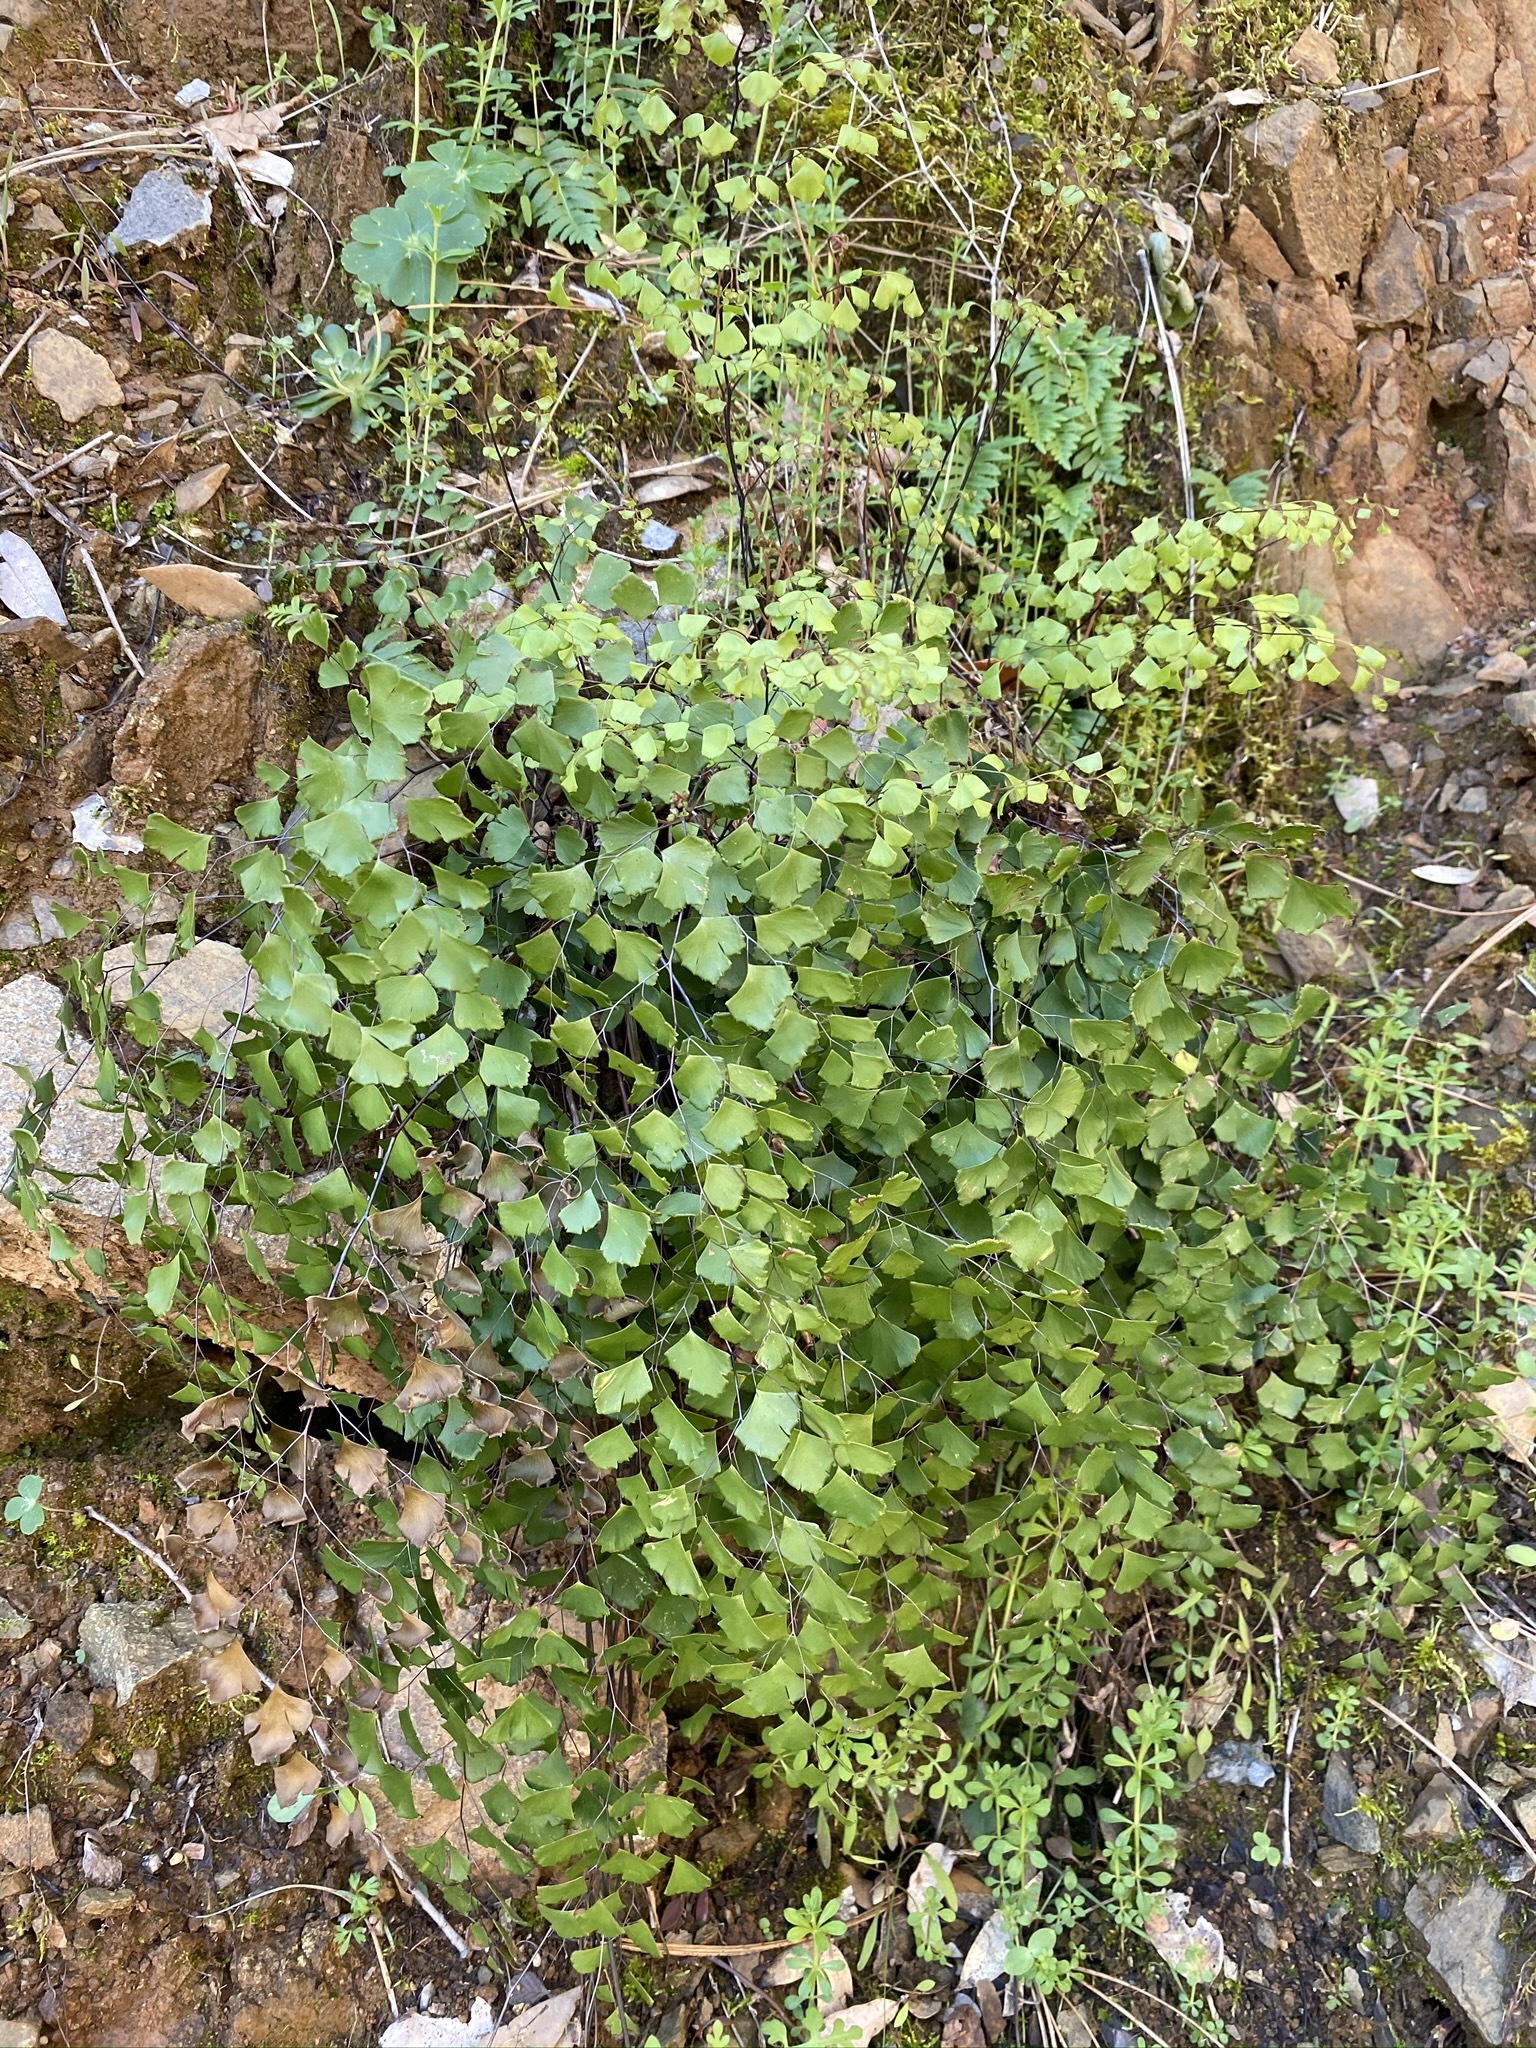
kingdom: Plantae
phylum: Tracheophyta
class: Polypodiopsida
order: Polypodiales
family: Pteridaceae
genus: Adiantum
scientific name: Adiantum shastense
